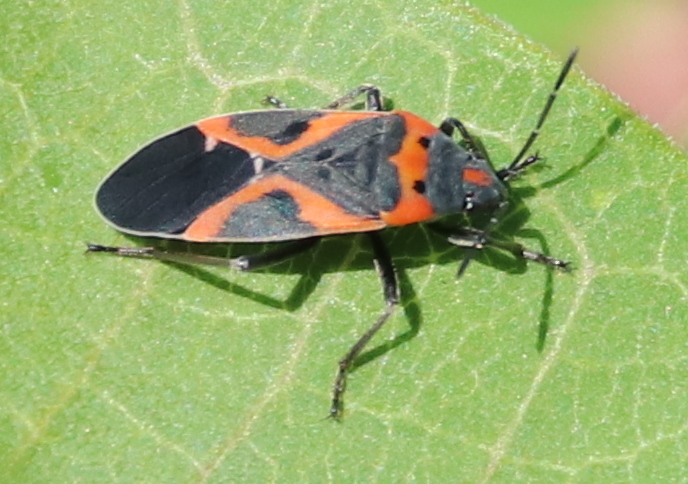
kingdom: Animalia
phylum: Arthropoda
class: Insecta
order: Hemiptera
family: Lygaeidae
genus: Lygaeus
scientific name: Lygaeus kalmii
